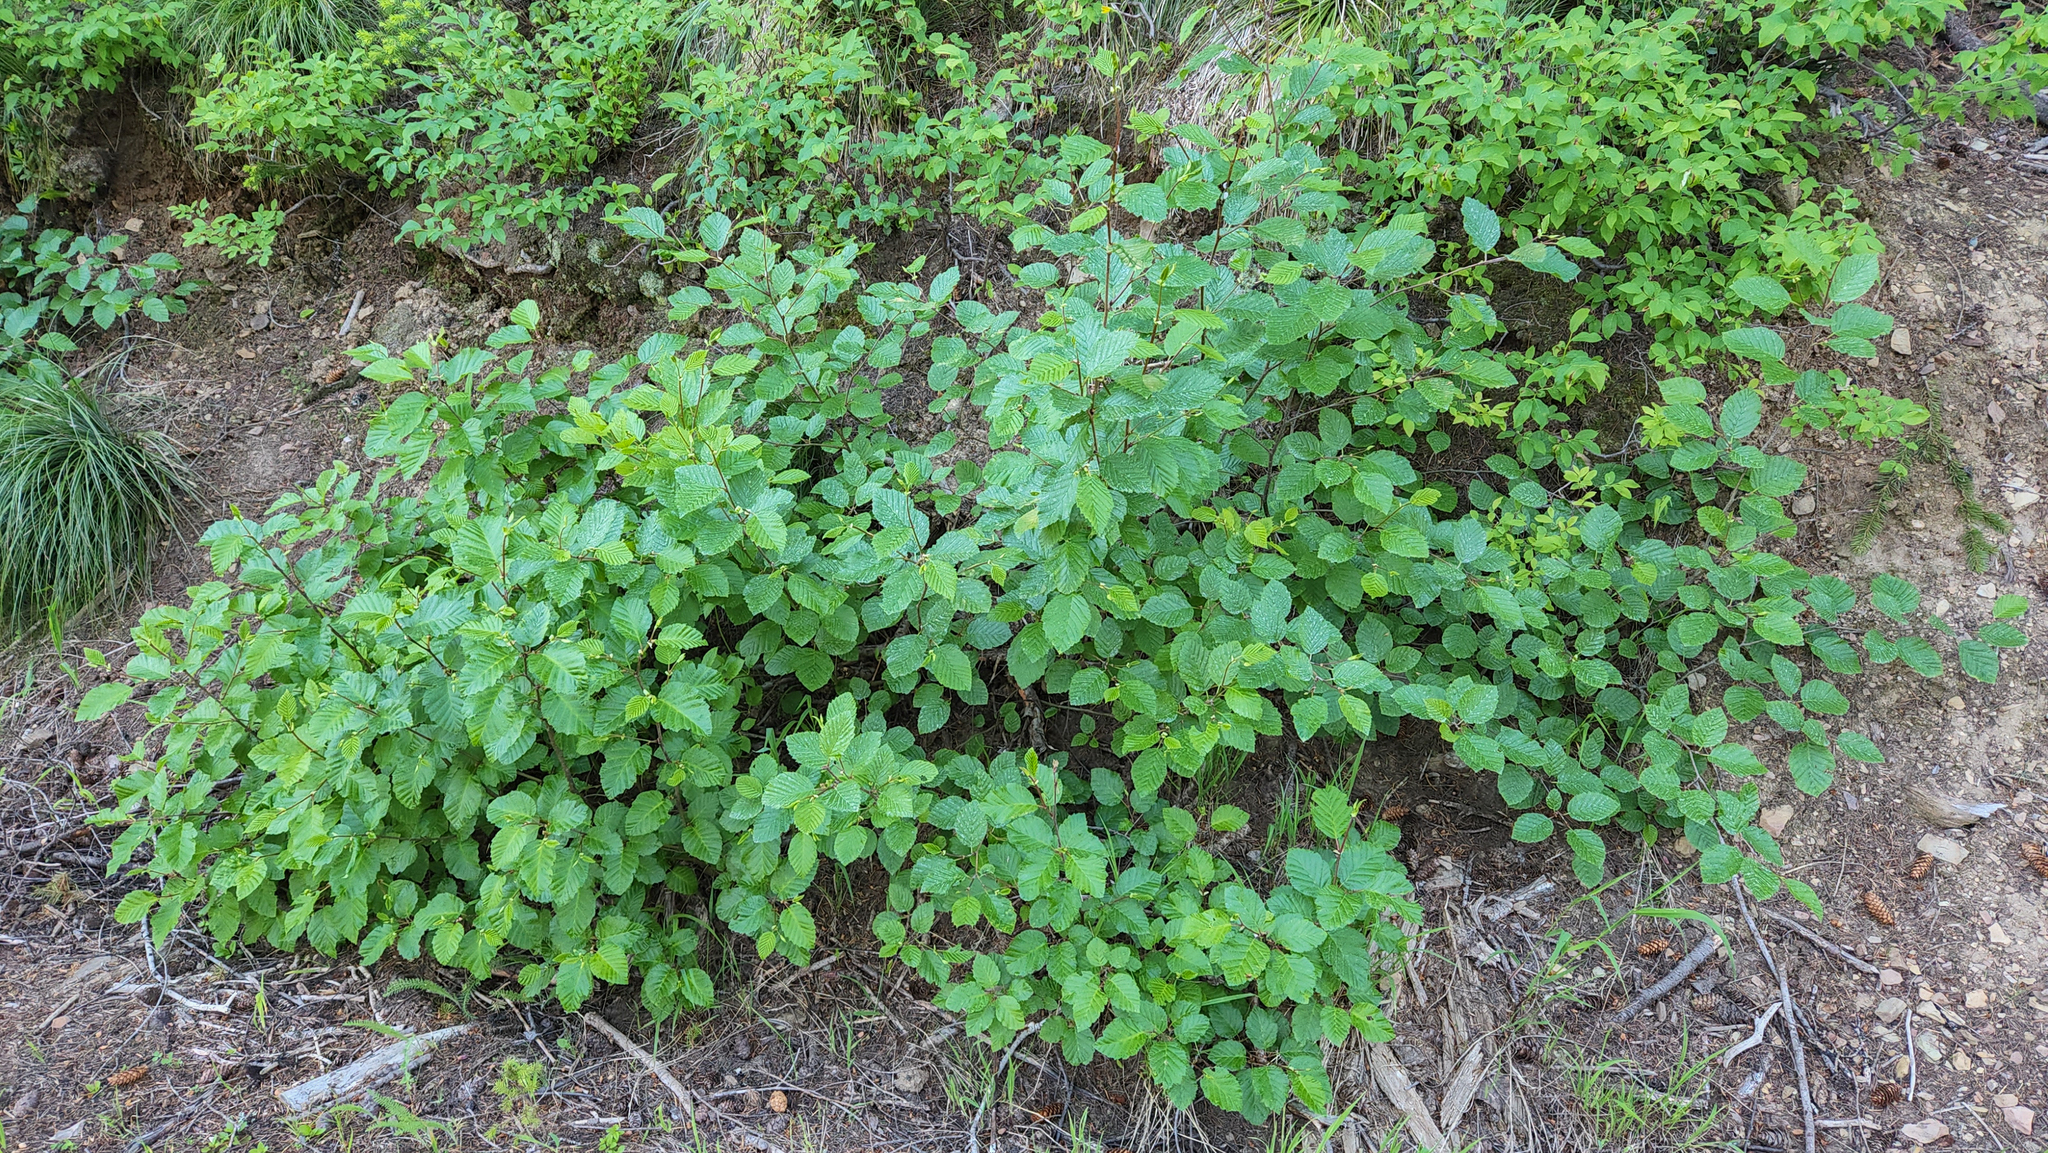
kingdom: Plantae
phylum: Tracheophyta
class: Magnoliopsida
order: Fagales
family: Betulaceae
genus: Alnus
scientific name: Alnus alnobetula
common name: Green alder
